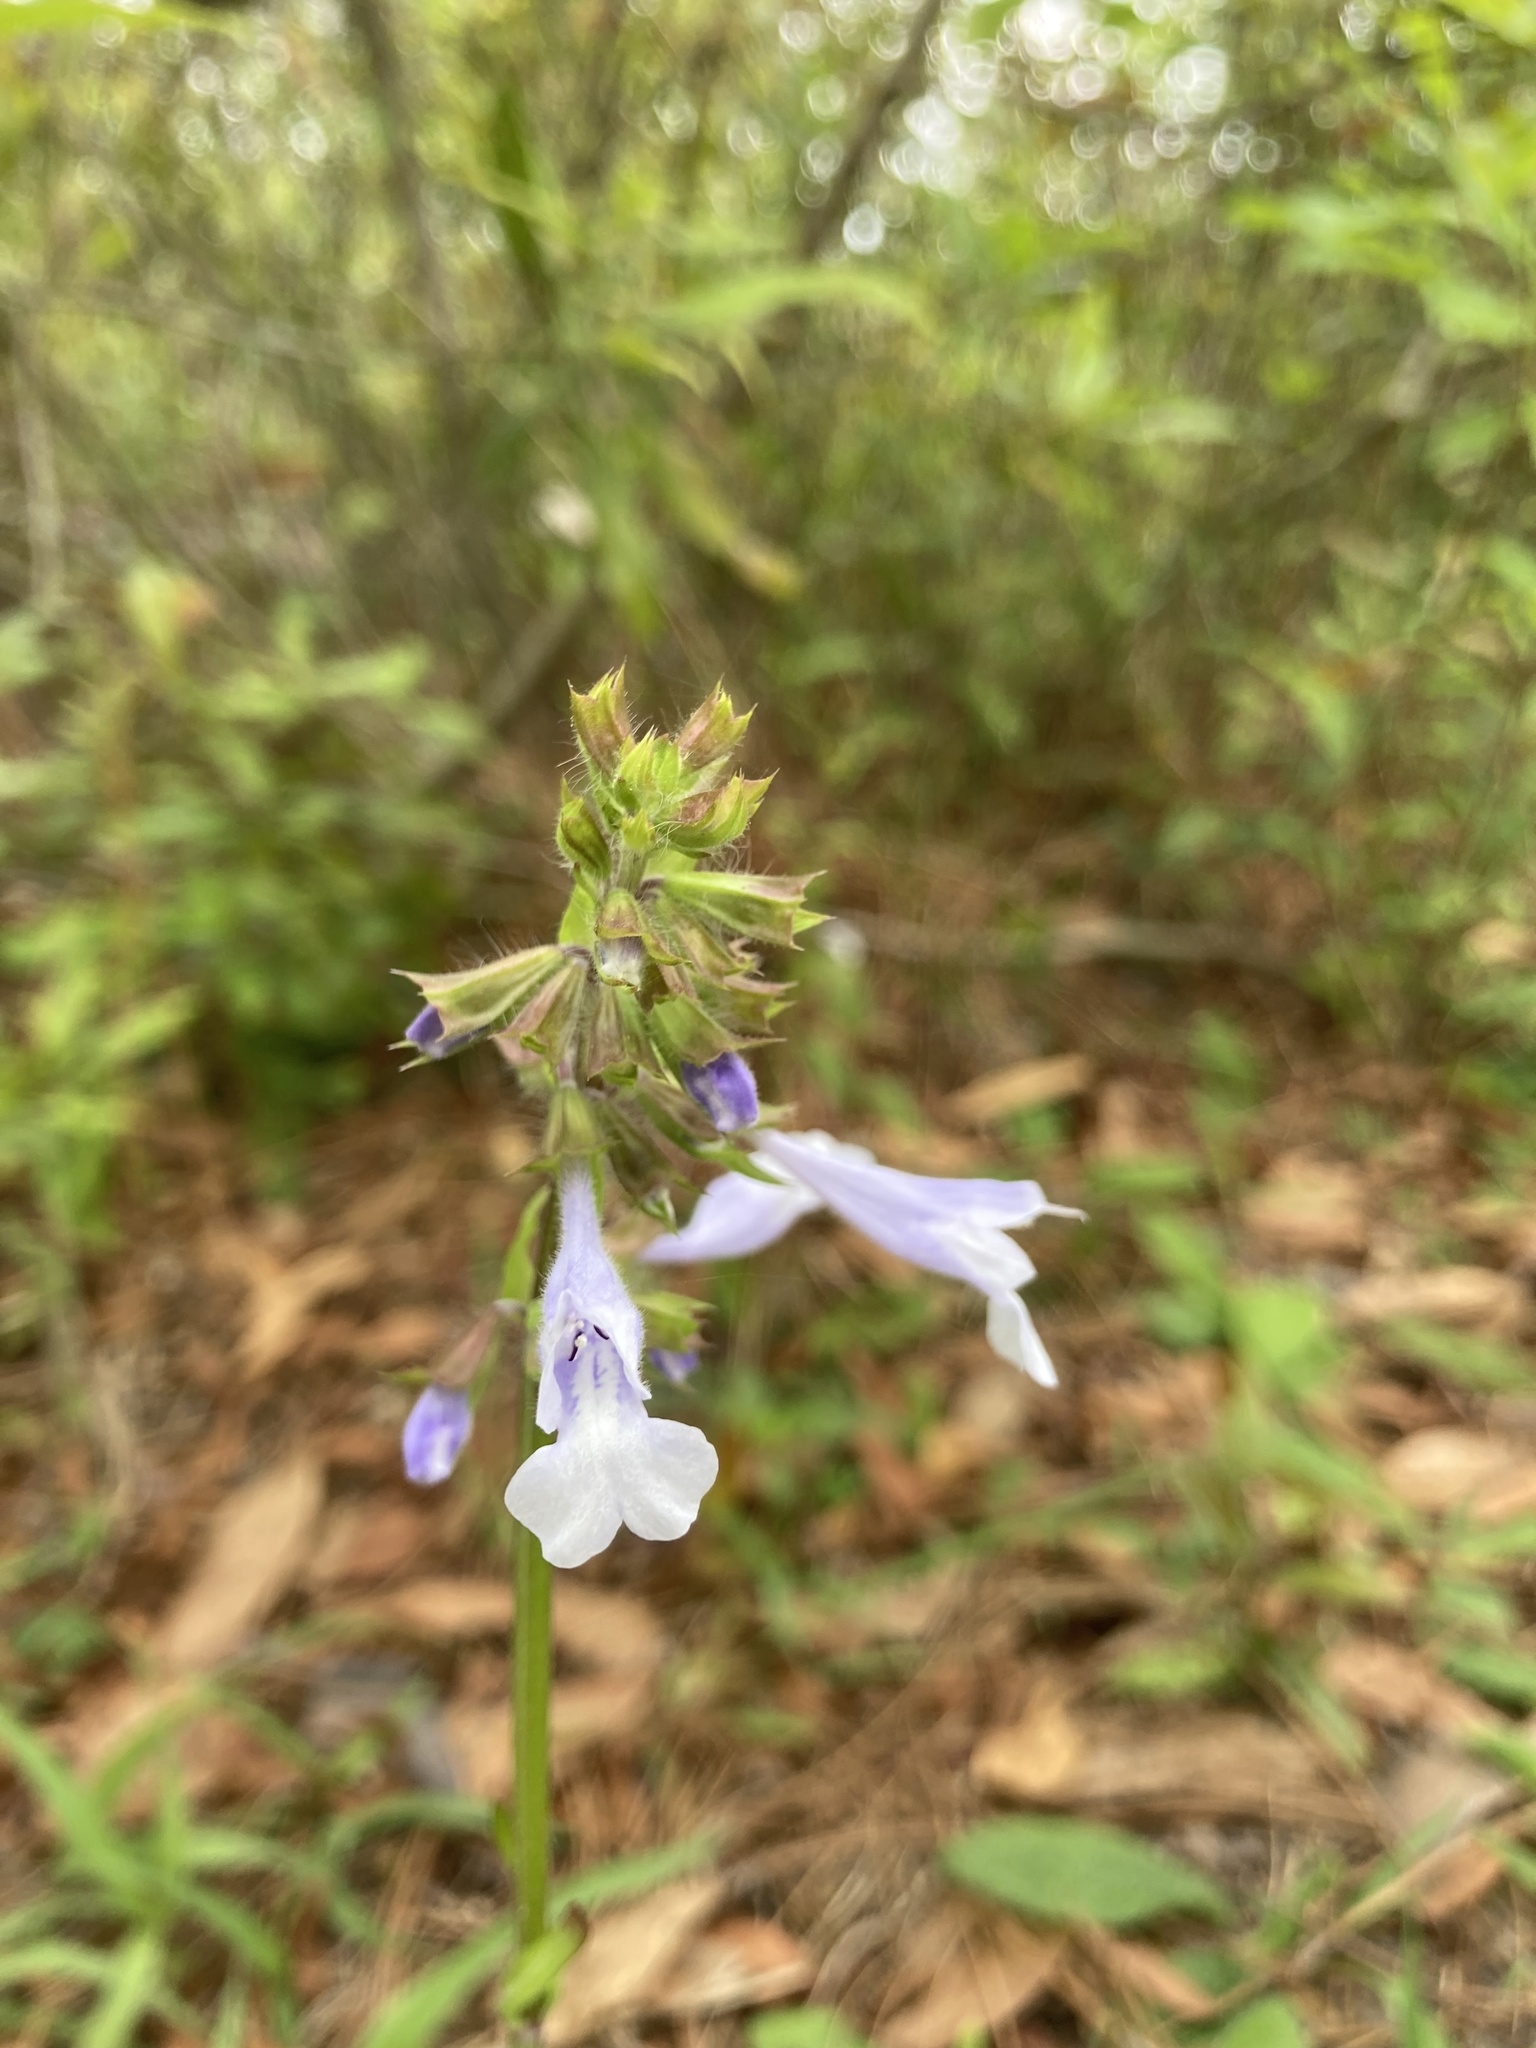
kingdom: Plantae
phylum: Tracheophyta
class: Magnoliopsida
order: Lamiales
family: Lamiaceae
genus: Salvia
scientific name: Salvia lyrata
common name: Cancerweed
